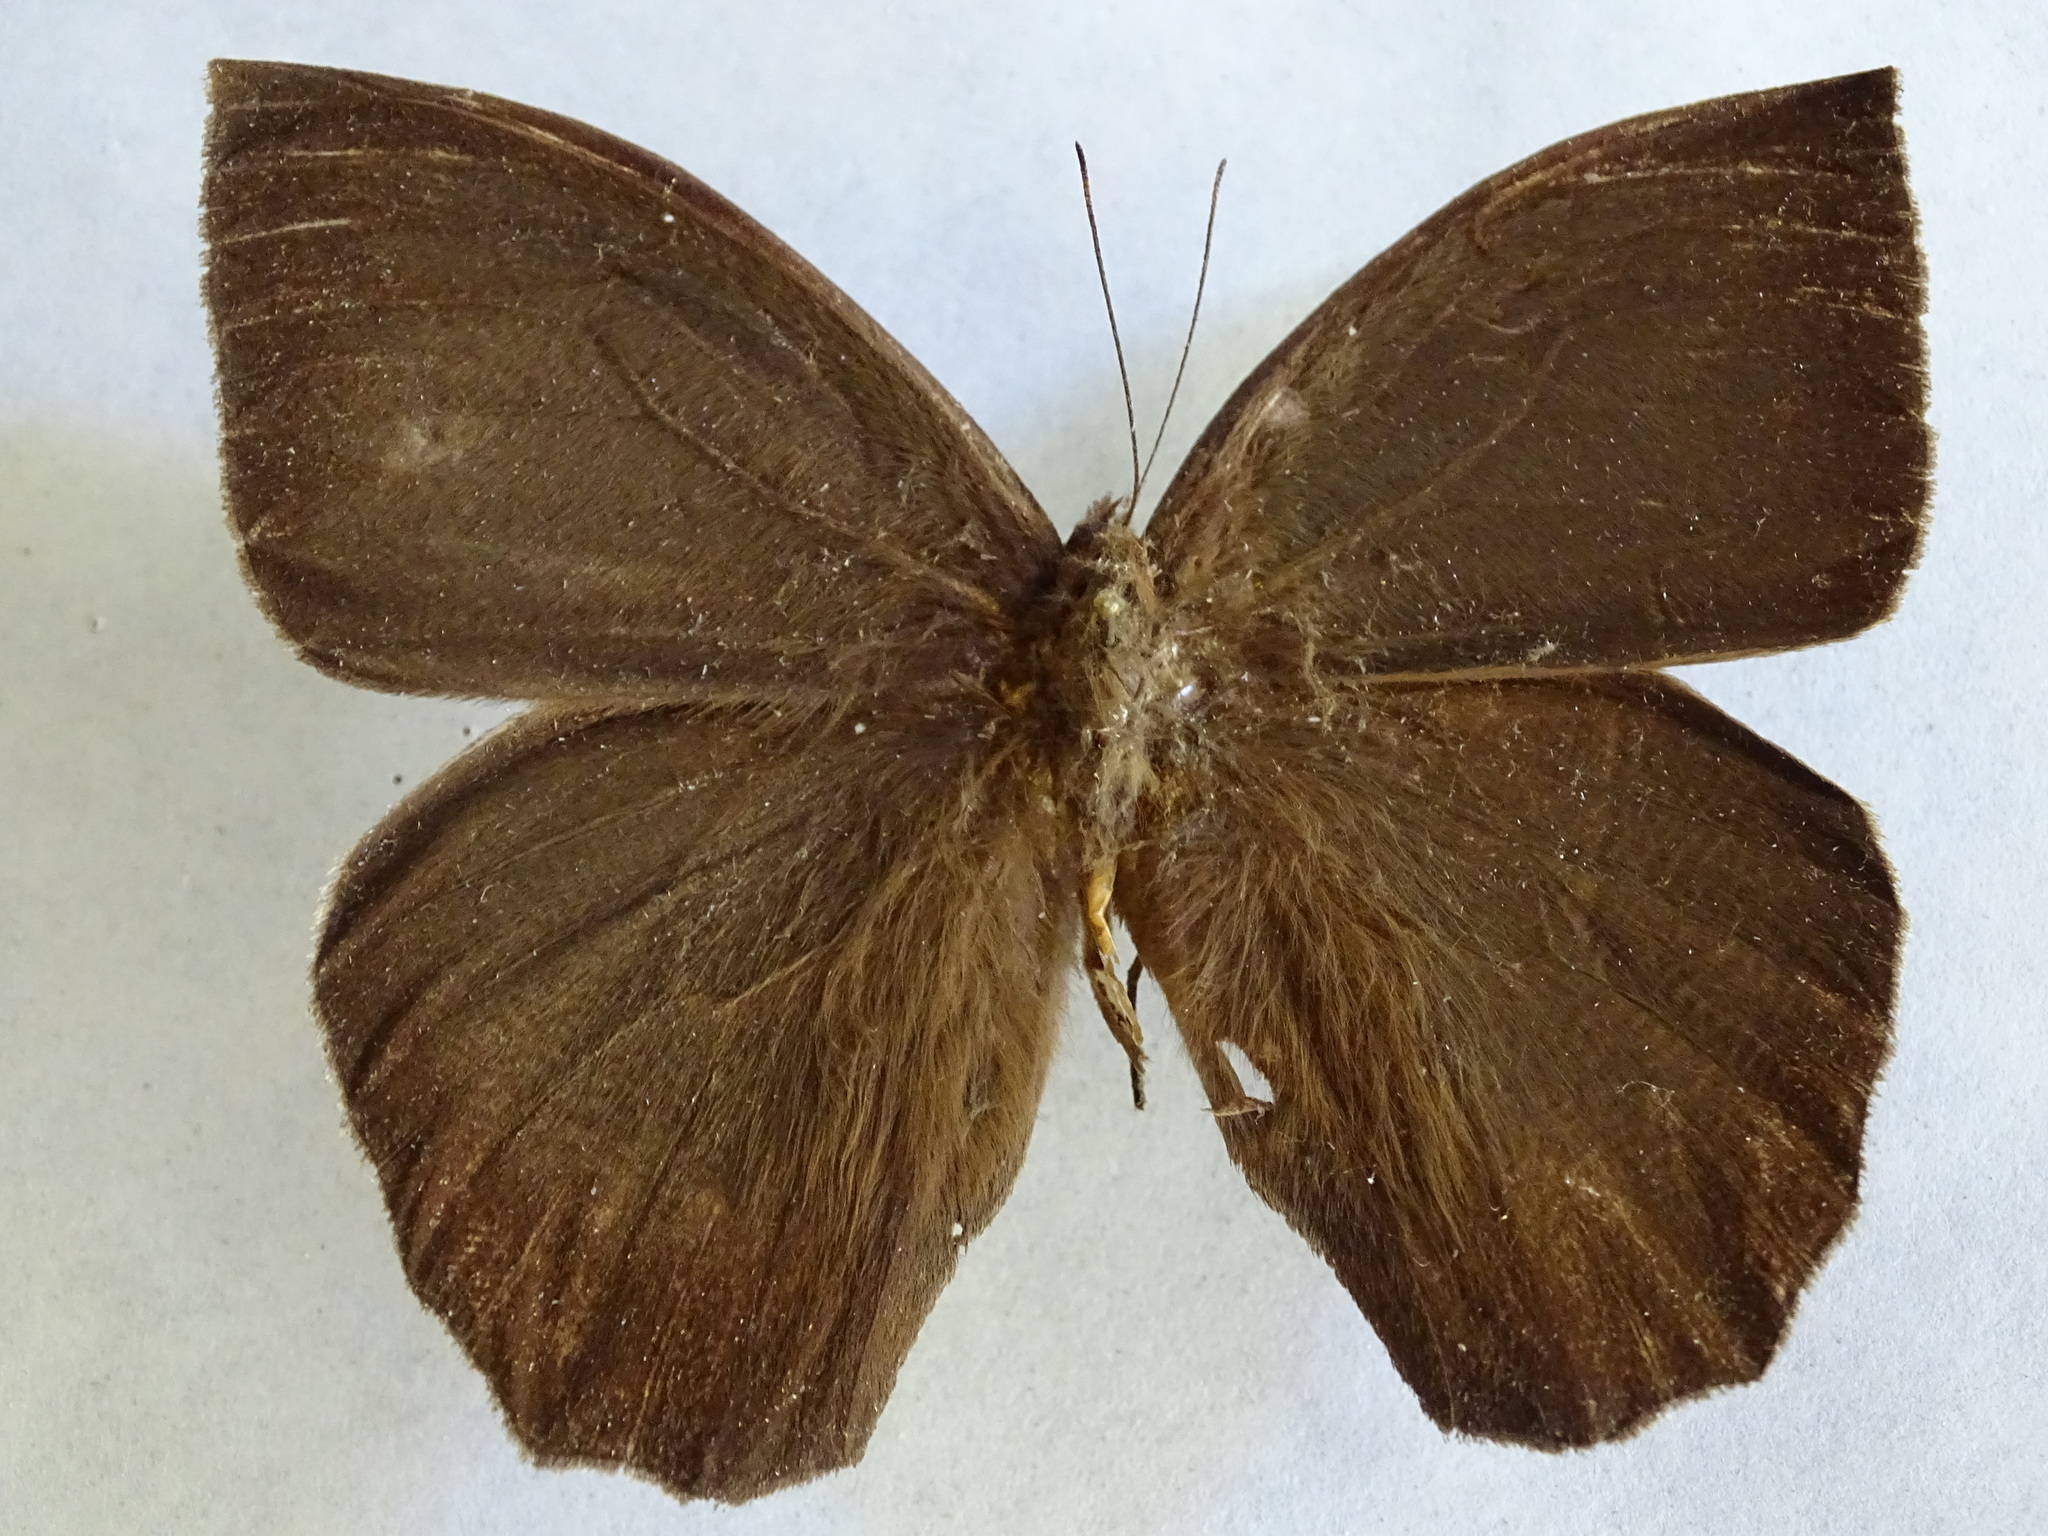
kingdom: Animalia
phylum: Arthropoda
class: Insecta
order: Lepidoptera
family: Nymphalidae
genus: Taygetis
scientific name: Taygetis mermeria
